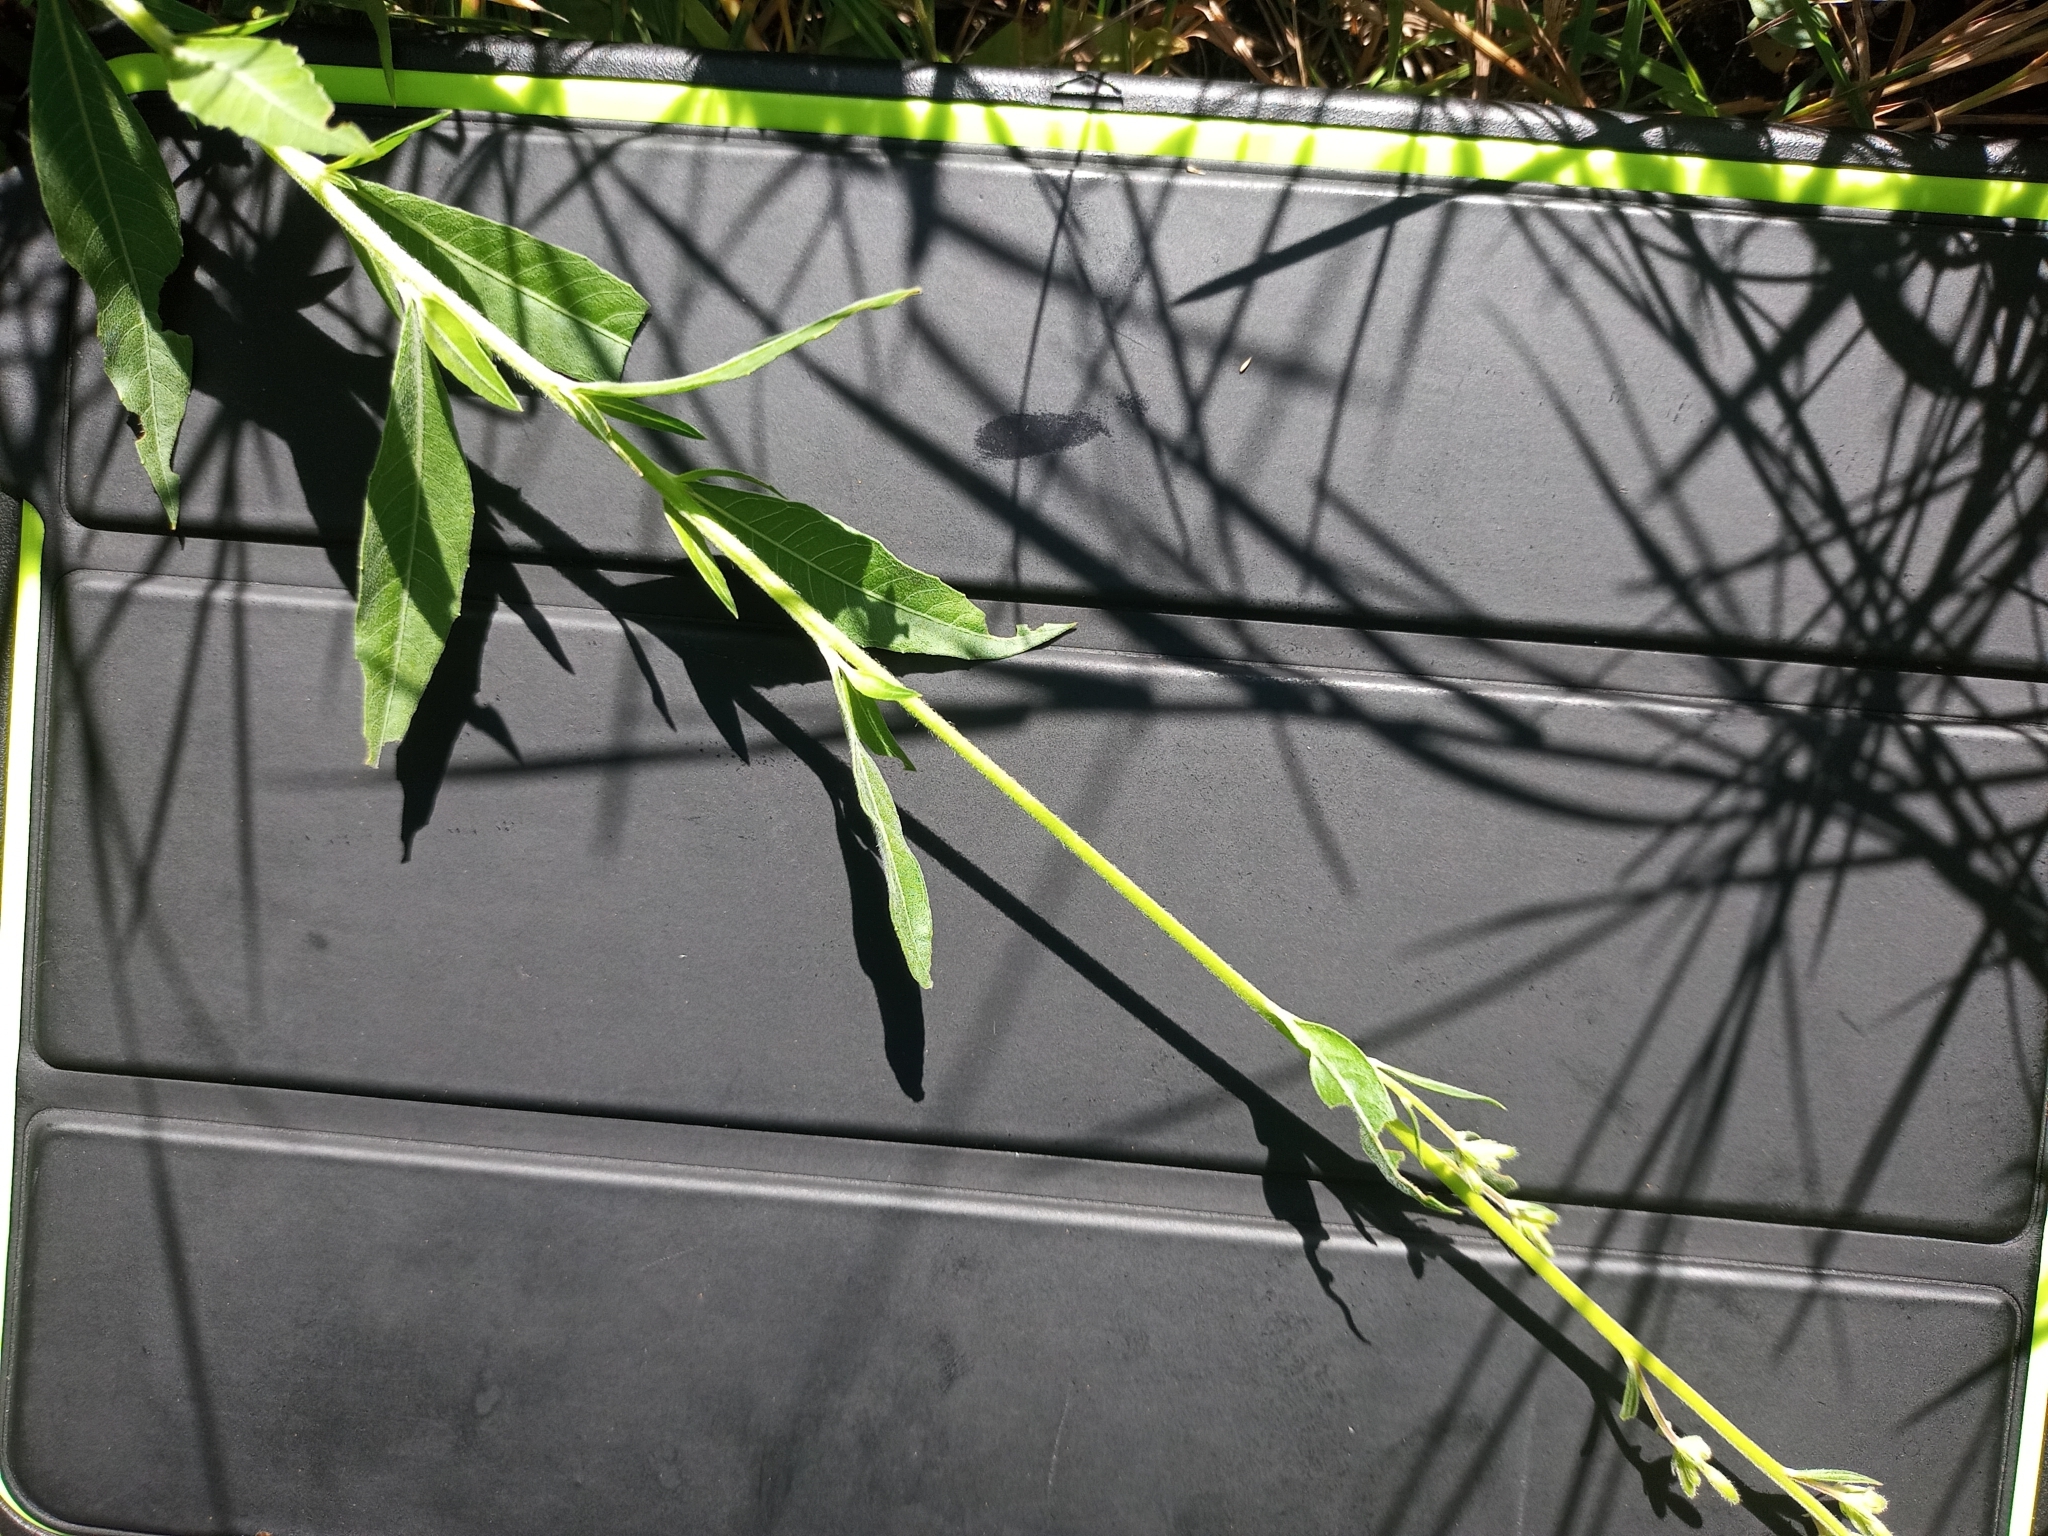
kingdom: Plantae
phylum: Tracheophyta
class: Magnoliopsida
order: Myrtales
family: Onagraceae
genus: Oenothera
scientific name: Oenothera gaura
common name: Biennial beeblossom
